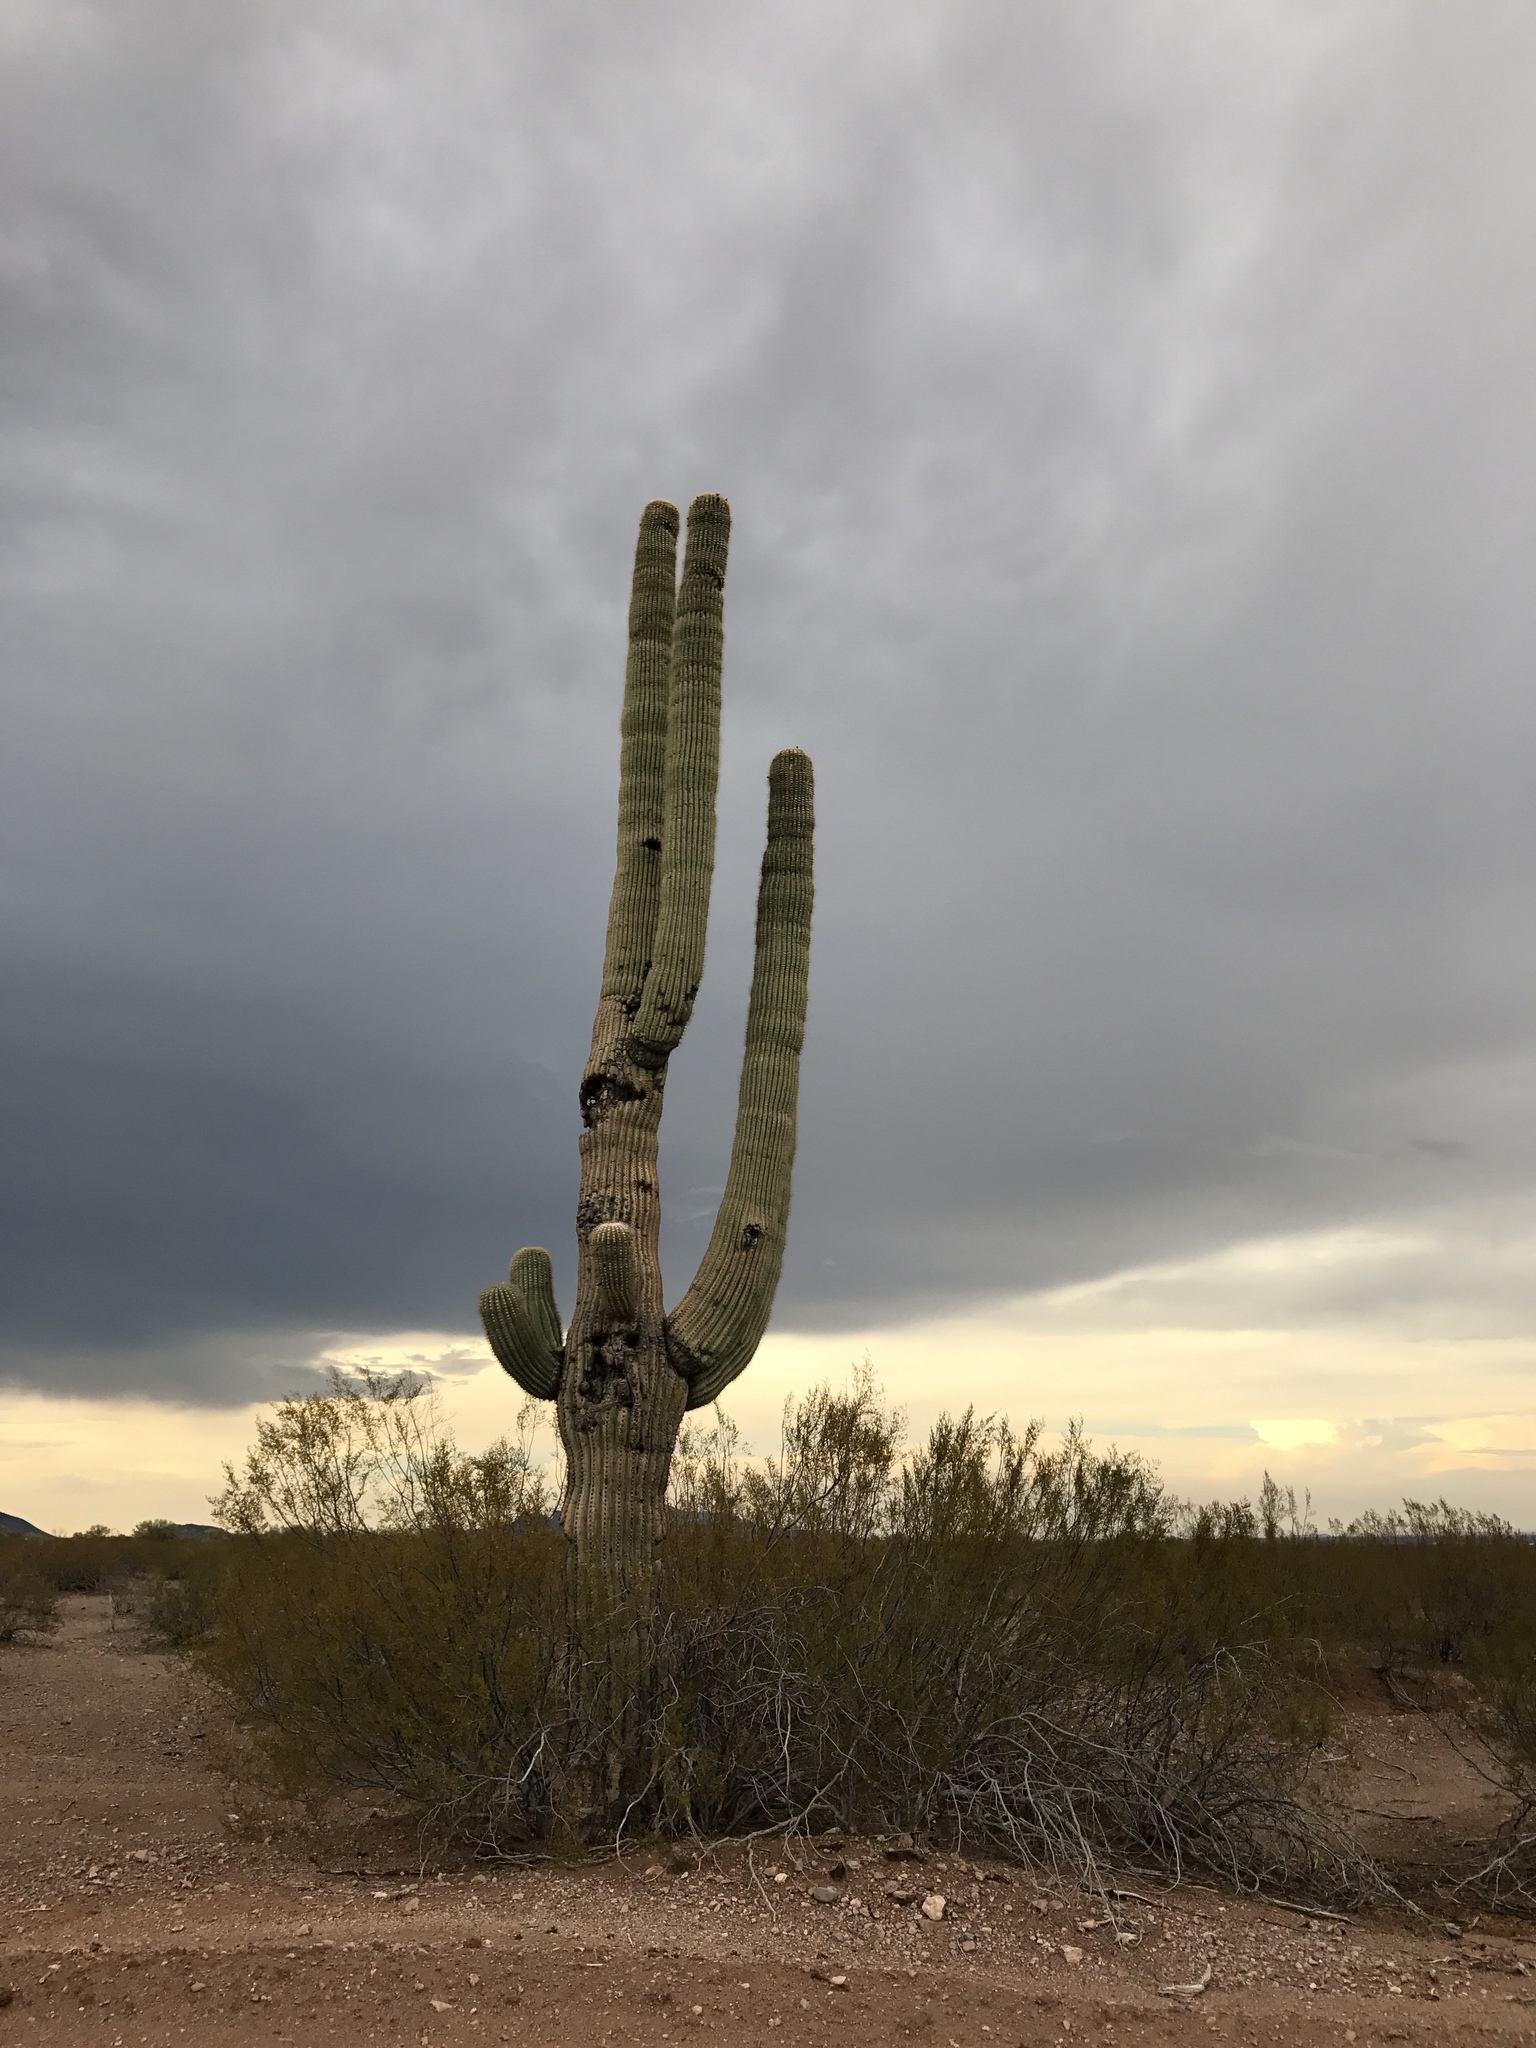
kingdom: Plantae
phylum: Tracheophyta
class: Magnoliopsida
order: Caryophyllales
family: Cactaceae
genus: Carnegiea
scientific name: Carnegiea gigantea
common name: Saguaro
